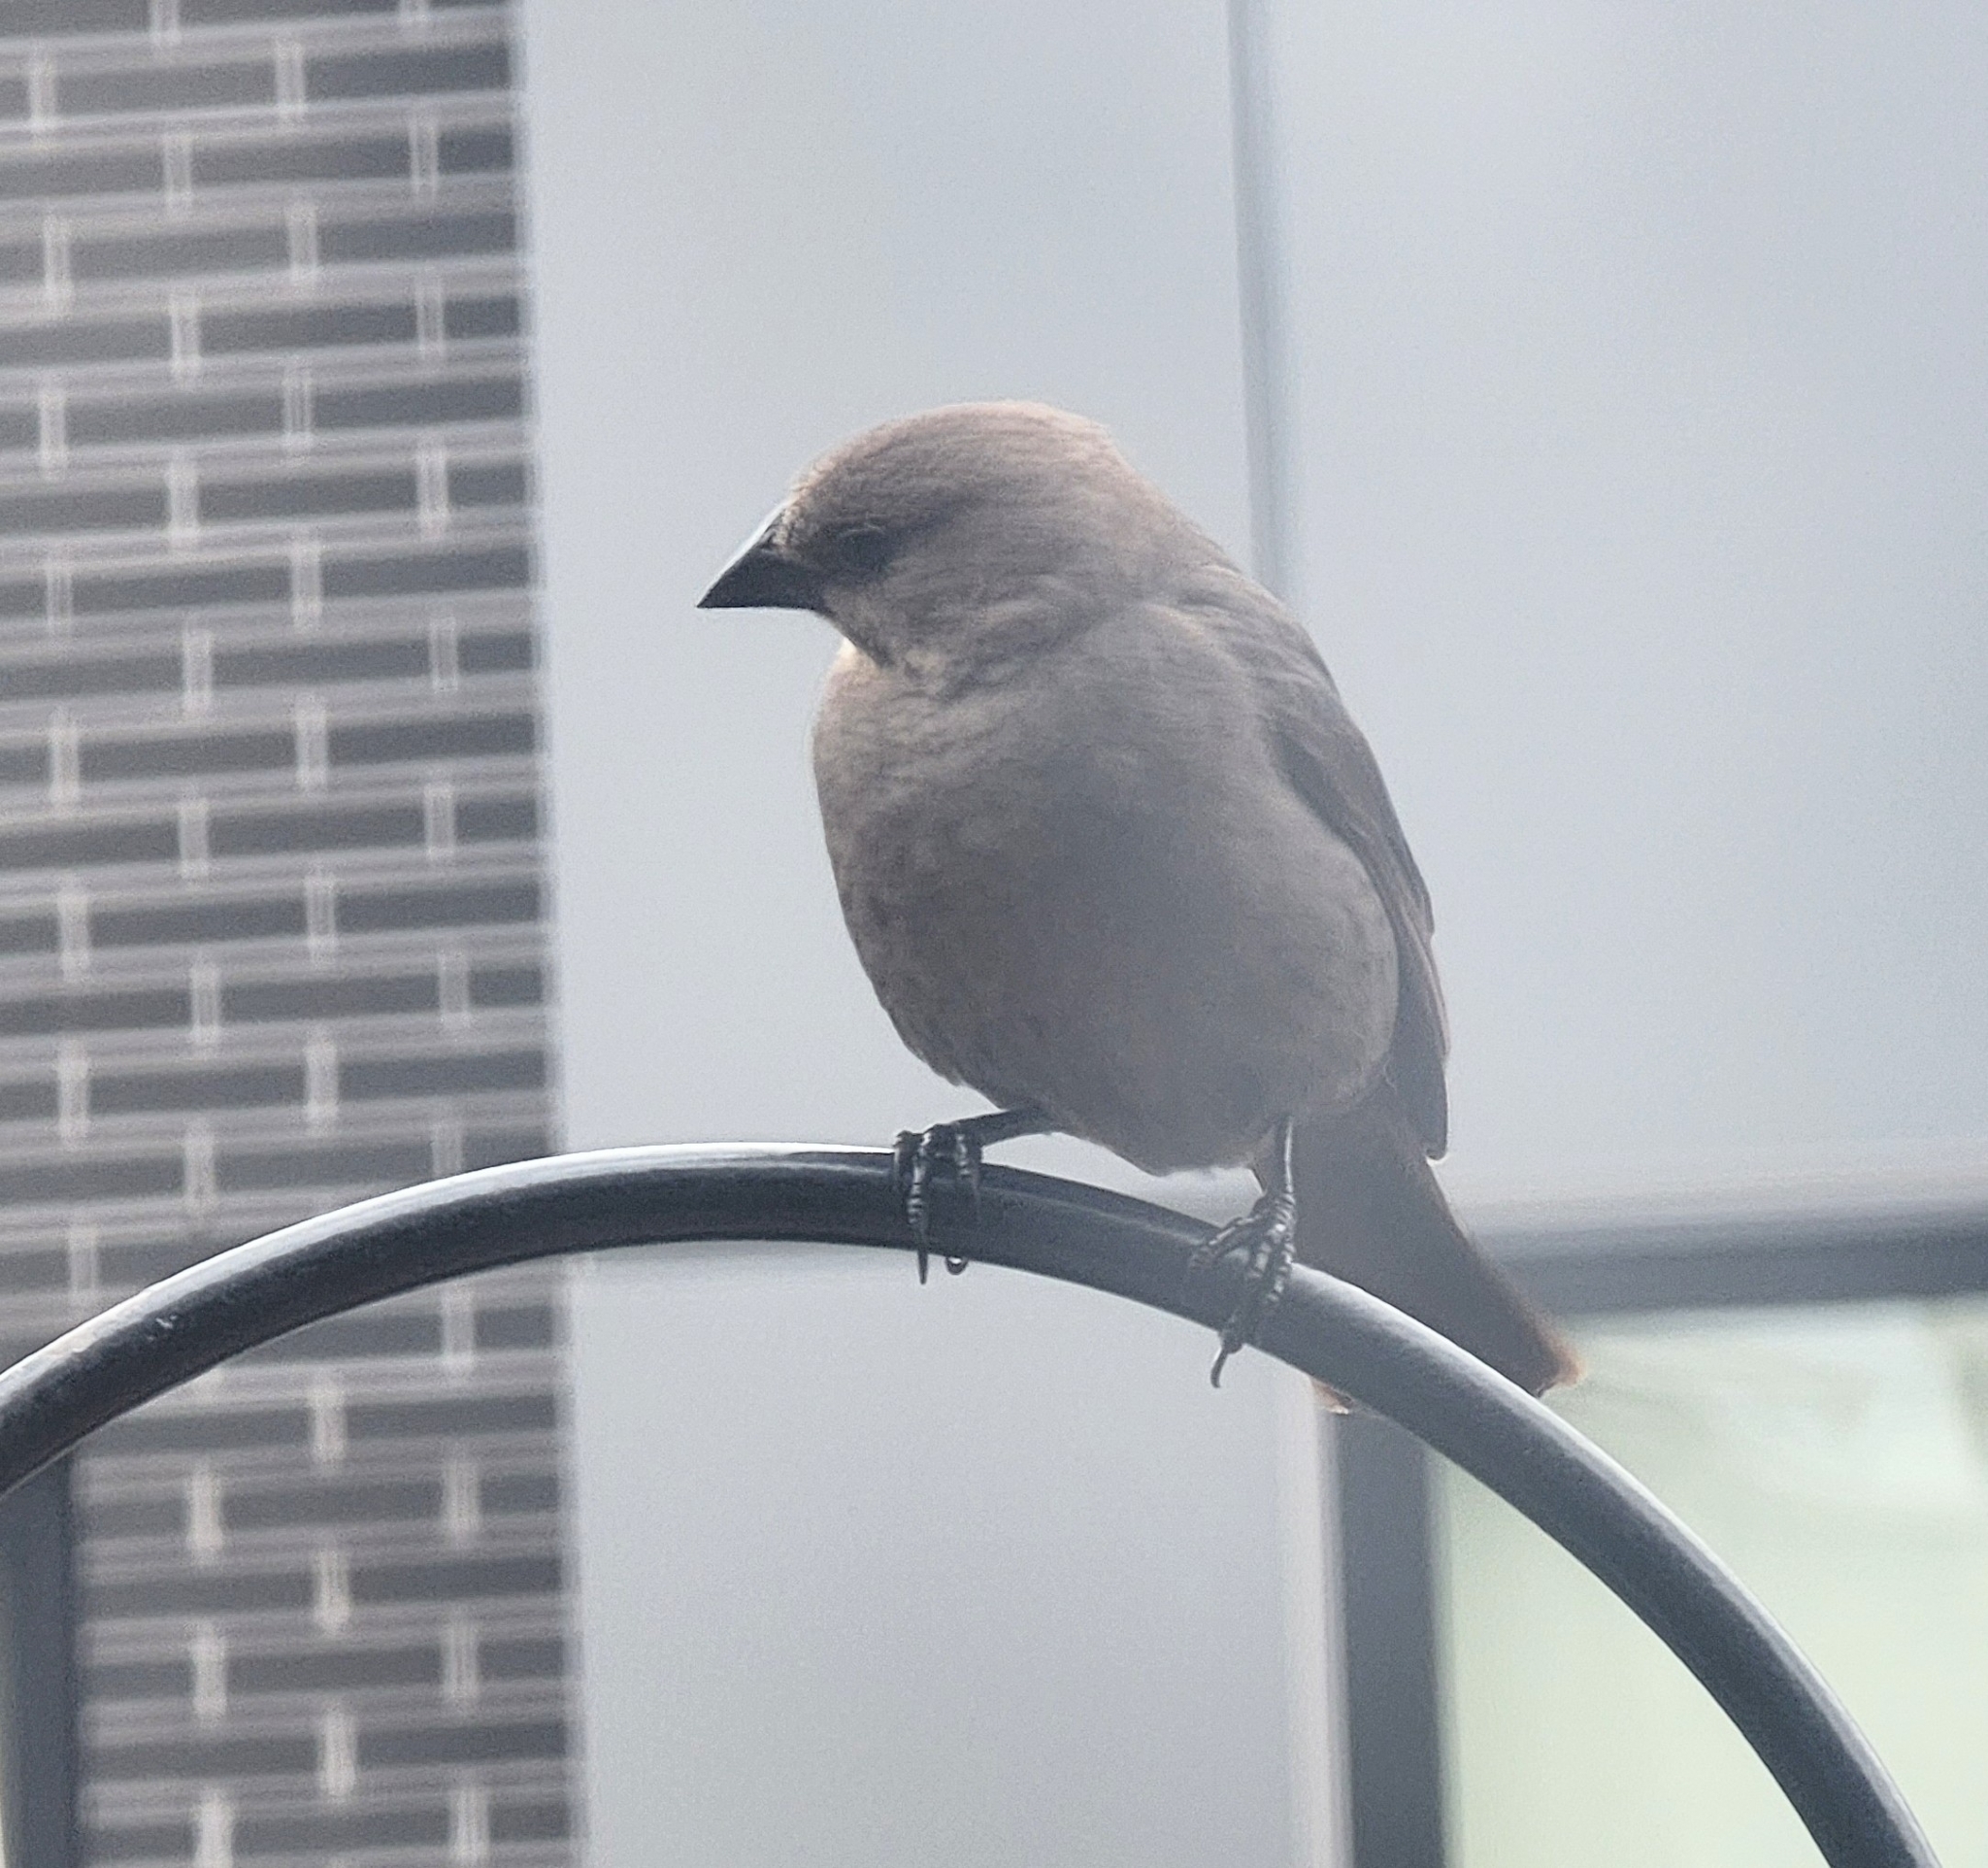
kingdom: Animalia
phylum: Chordata
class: Aves
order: Passeriformes
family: Icteridae
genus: Molothrus
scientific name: Molothrus ater
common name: Brown-headed cowbird
